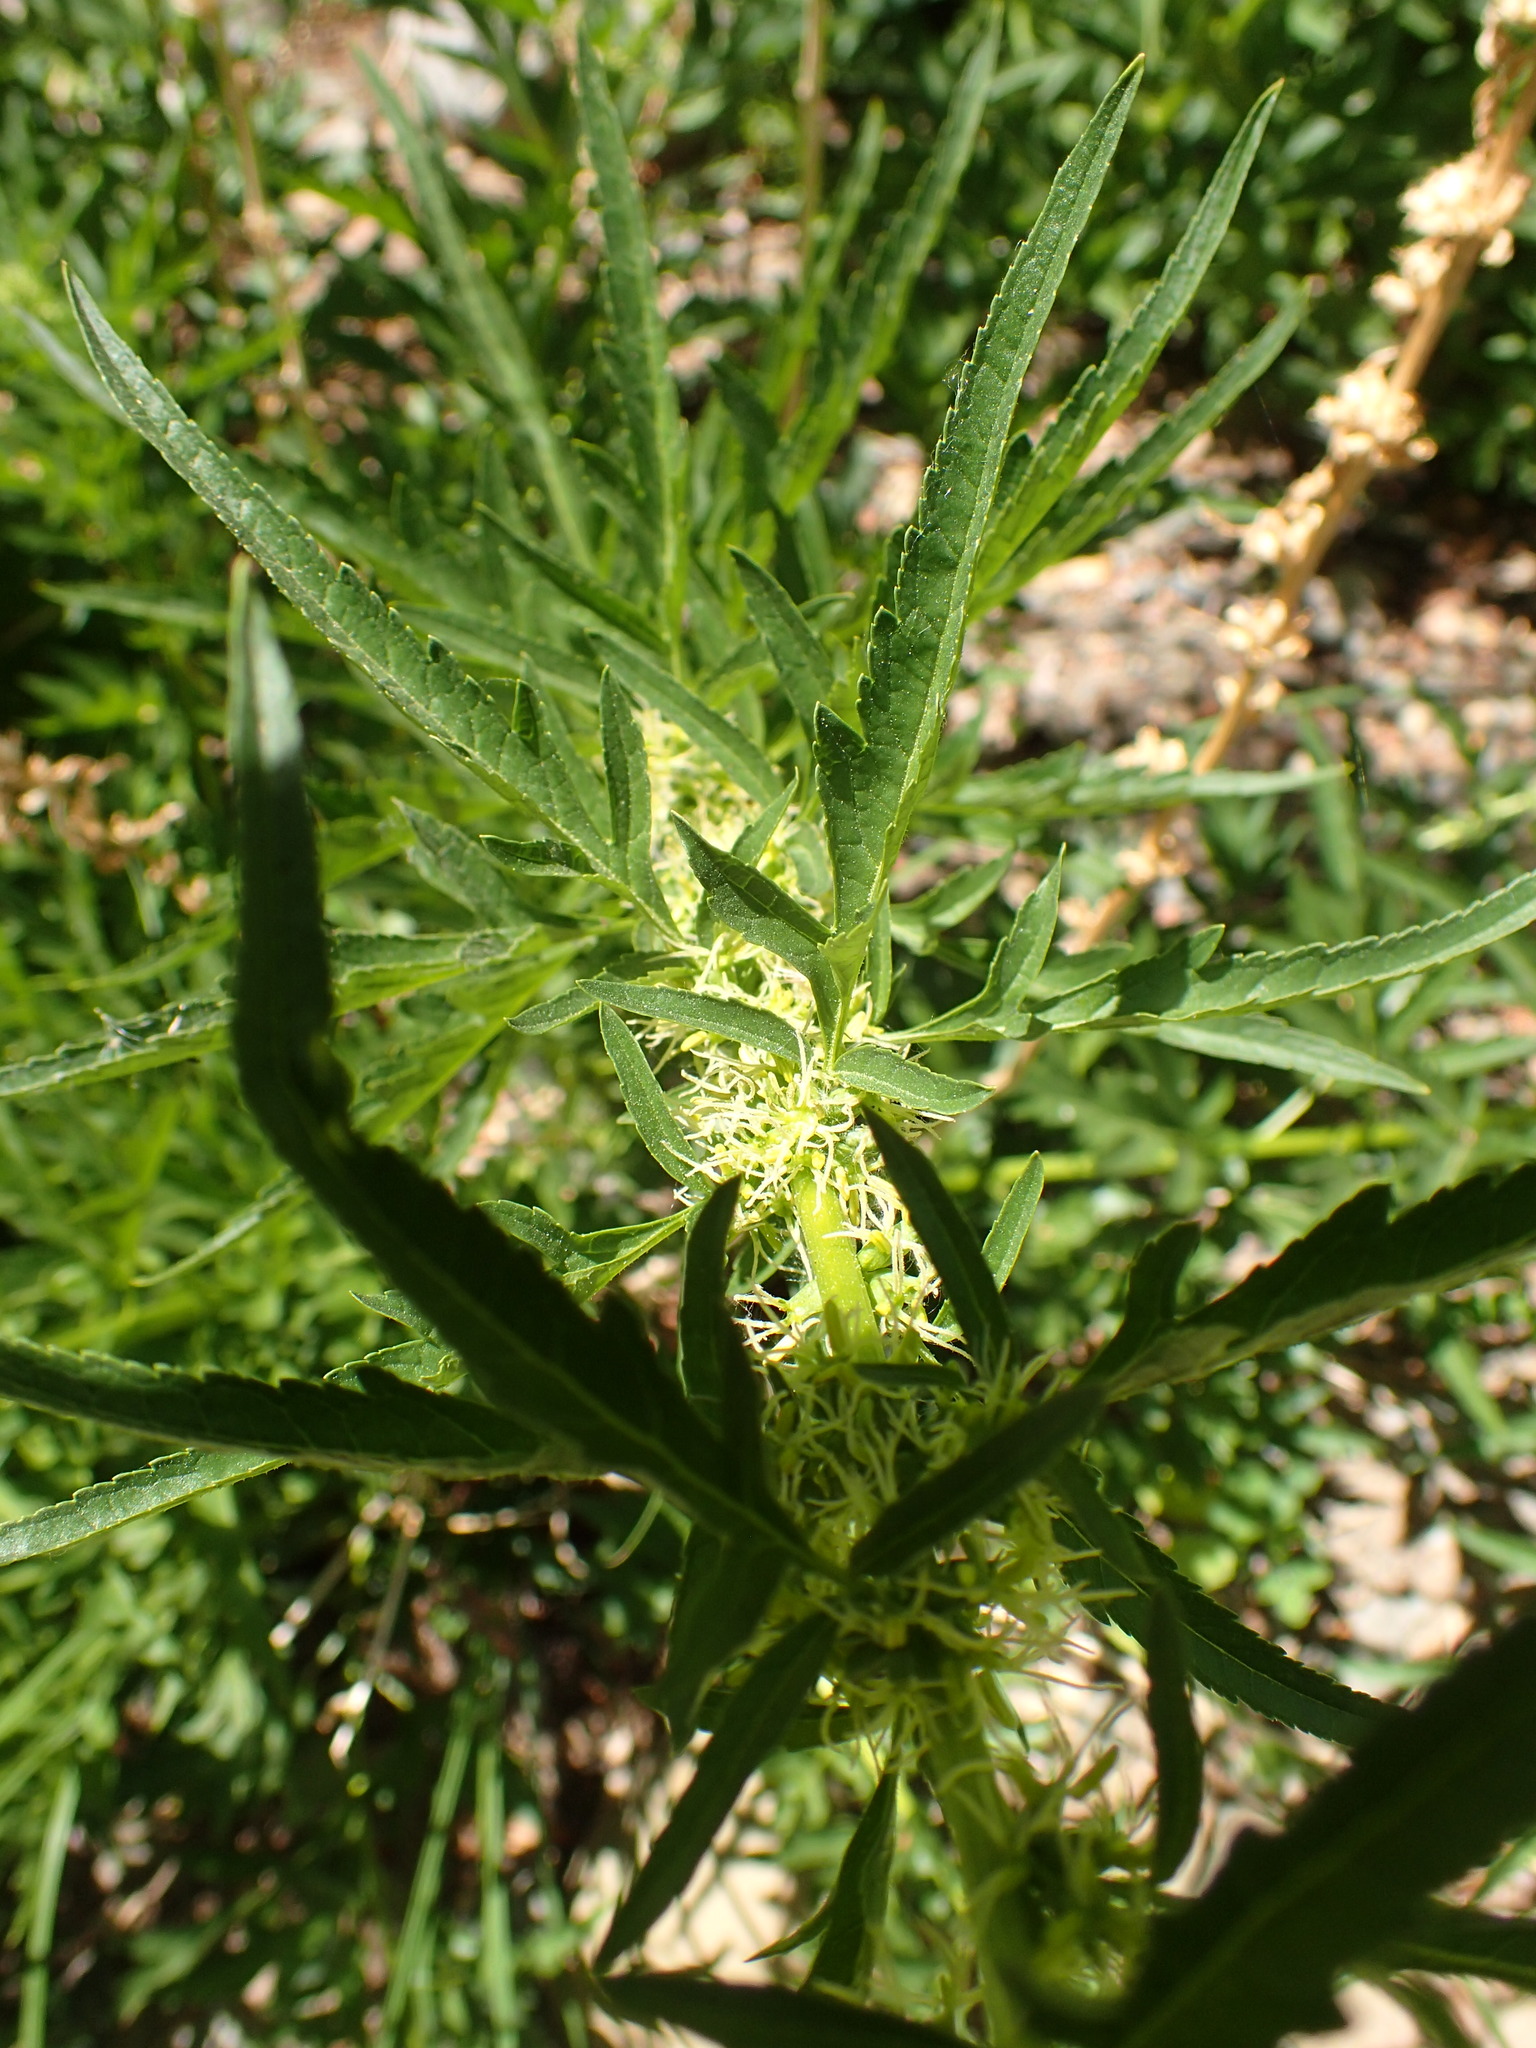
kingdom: Plantae
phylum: Tracheophyta
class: Magnoliopsida
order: Cucurbitales
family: Datiscaceae
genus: Datisca
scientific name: Datisca glomerata
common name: Durango-root
